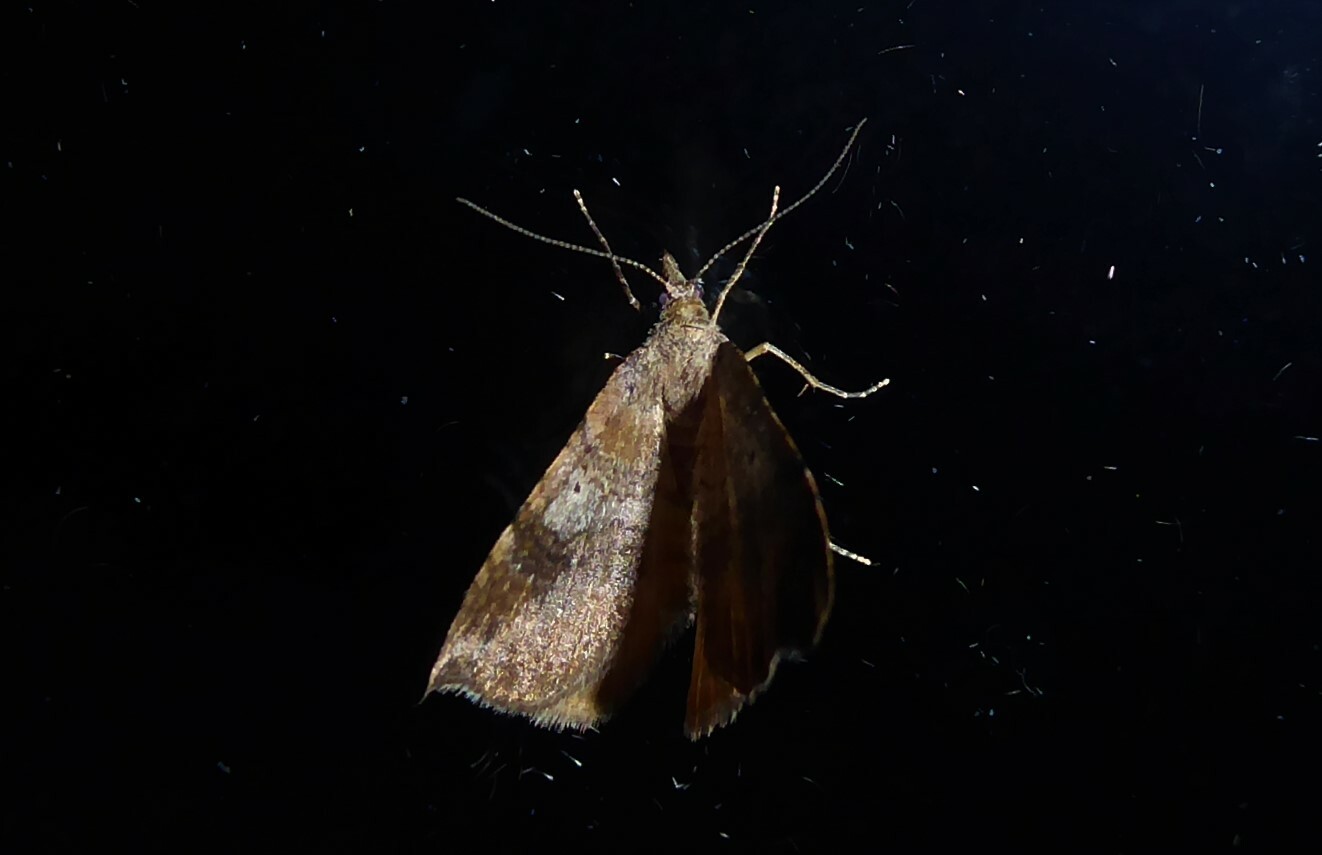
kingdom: Animalia
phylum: Arthropoda
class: Insecta
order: Lepidoptera
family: Geometridae
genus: Homodotis
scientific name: Homodotis megaspilata
